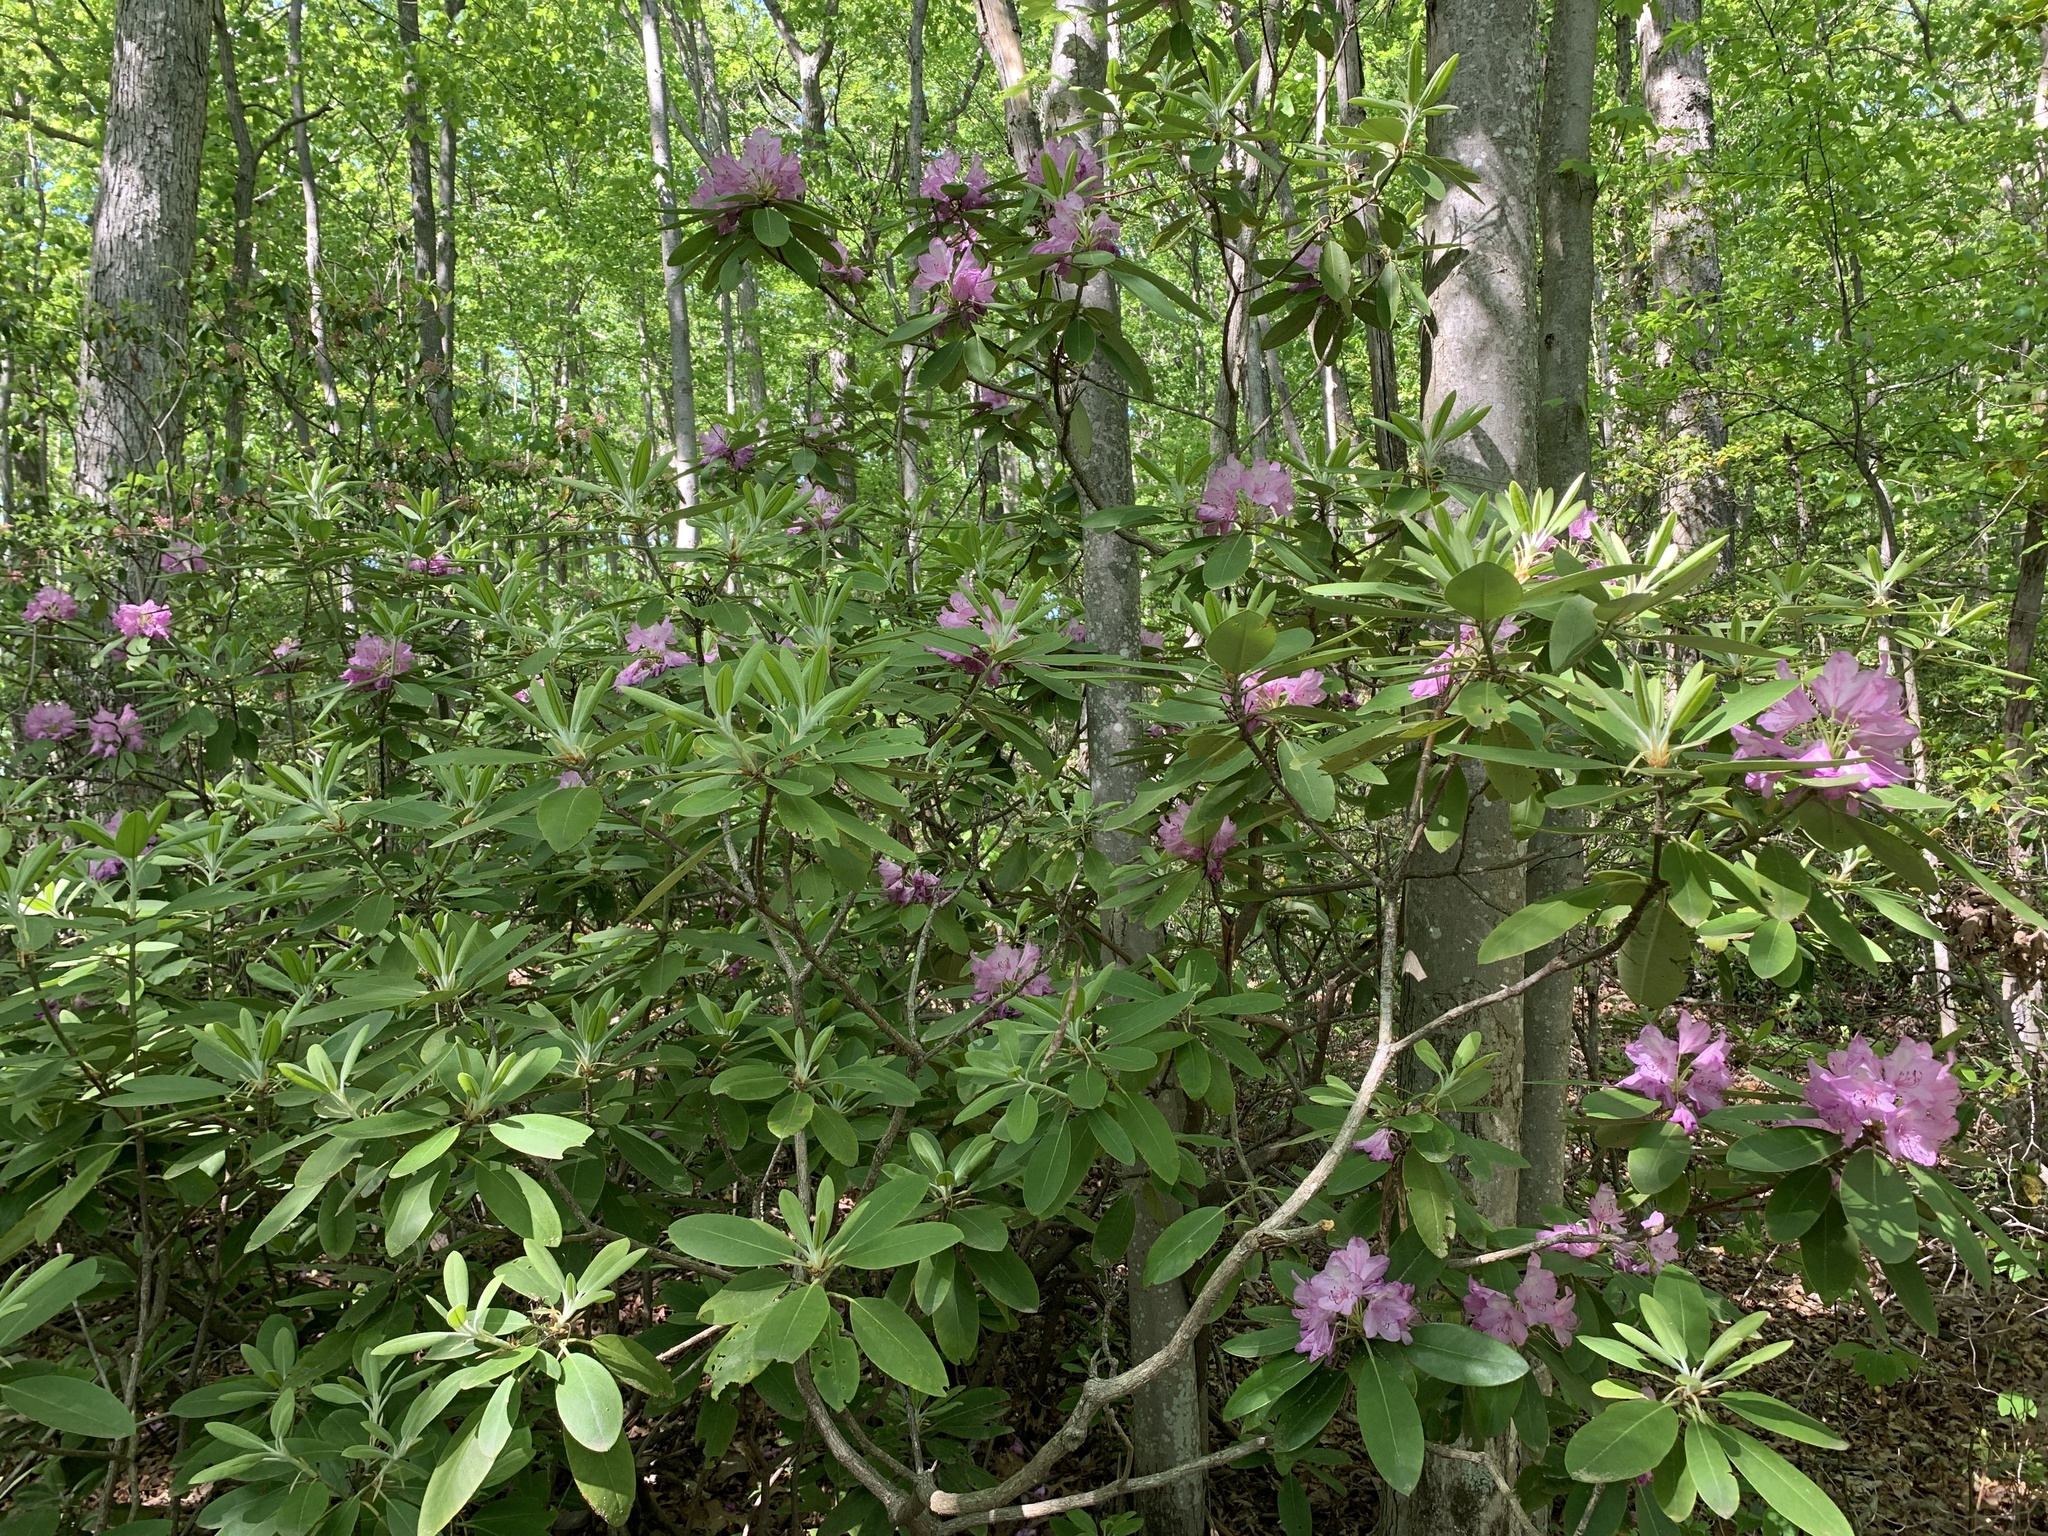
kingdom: Plantae
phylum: Tracheophyta
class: Magnoliopsida
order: Ericales
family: Ericaceae
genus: Rhododendron
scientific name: Rhododendron catawbiense
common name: Catawba rhododendron
